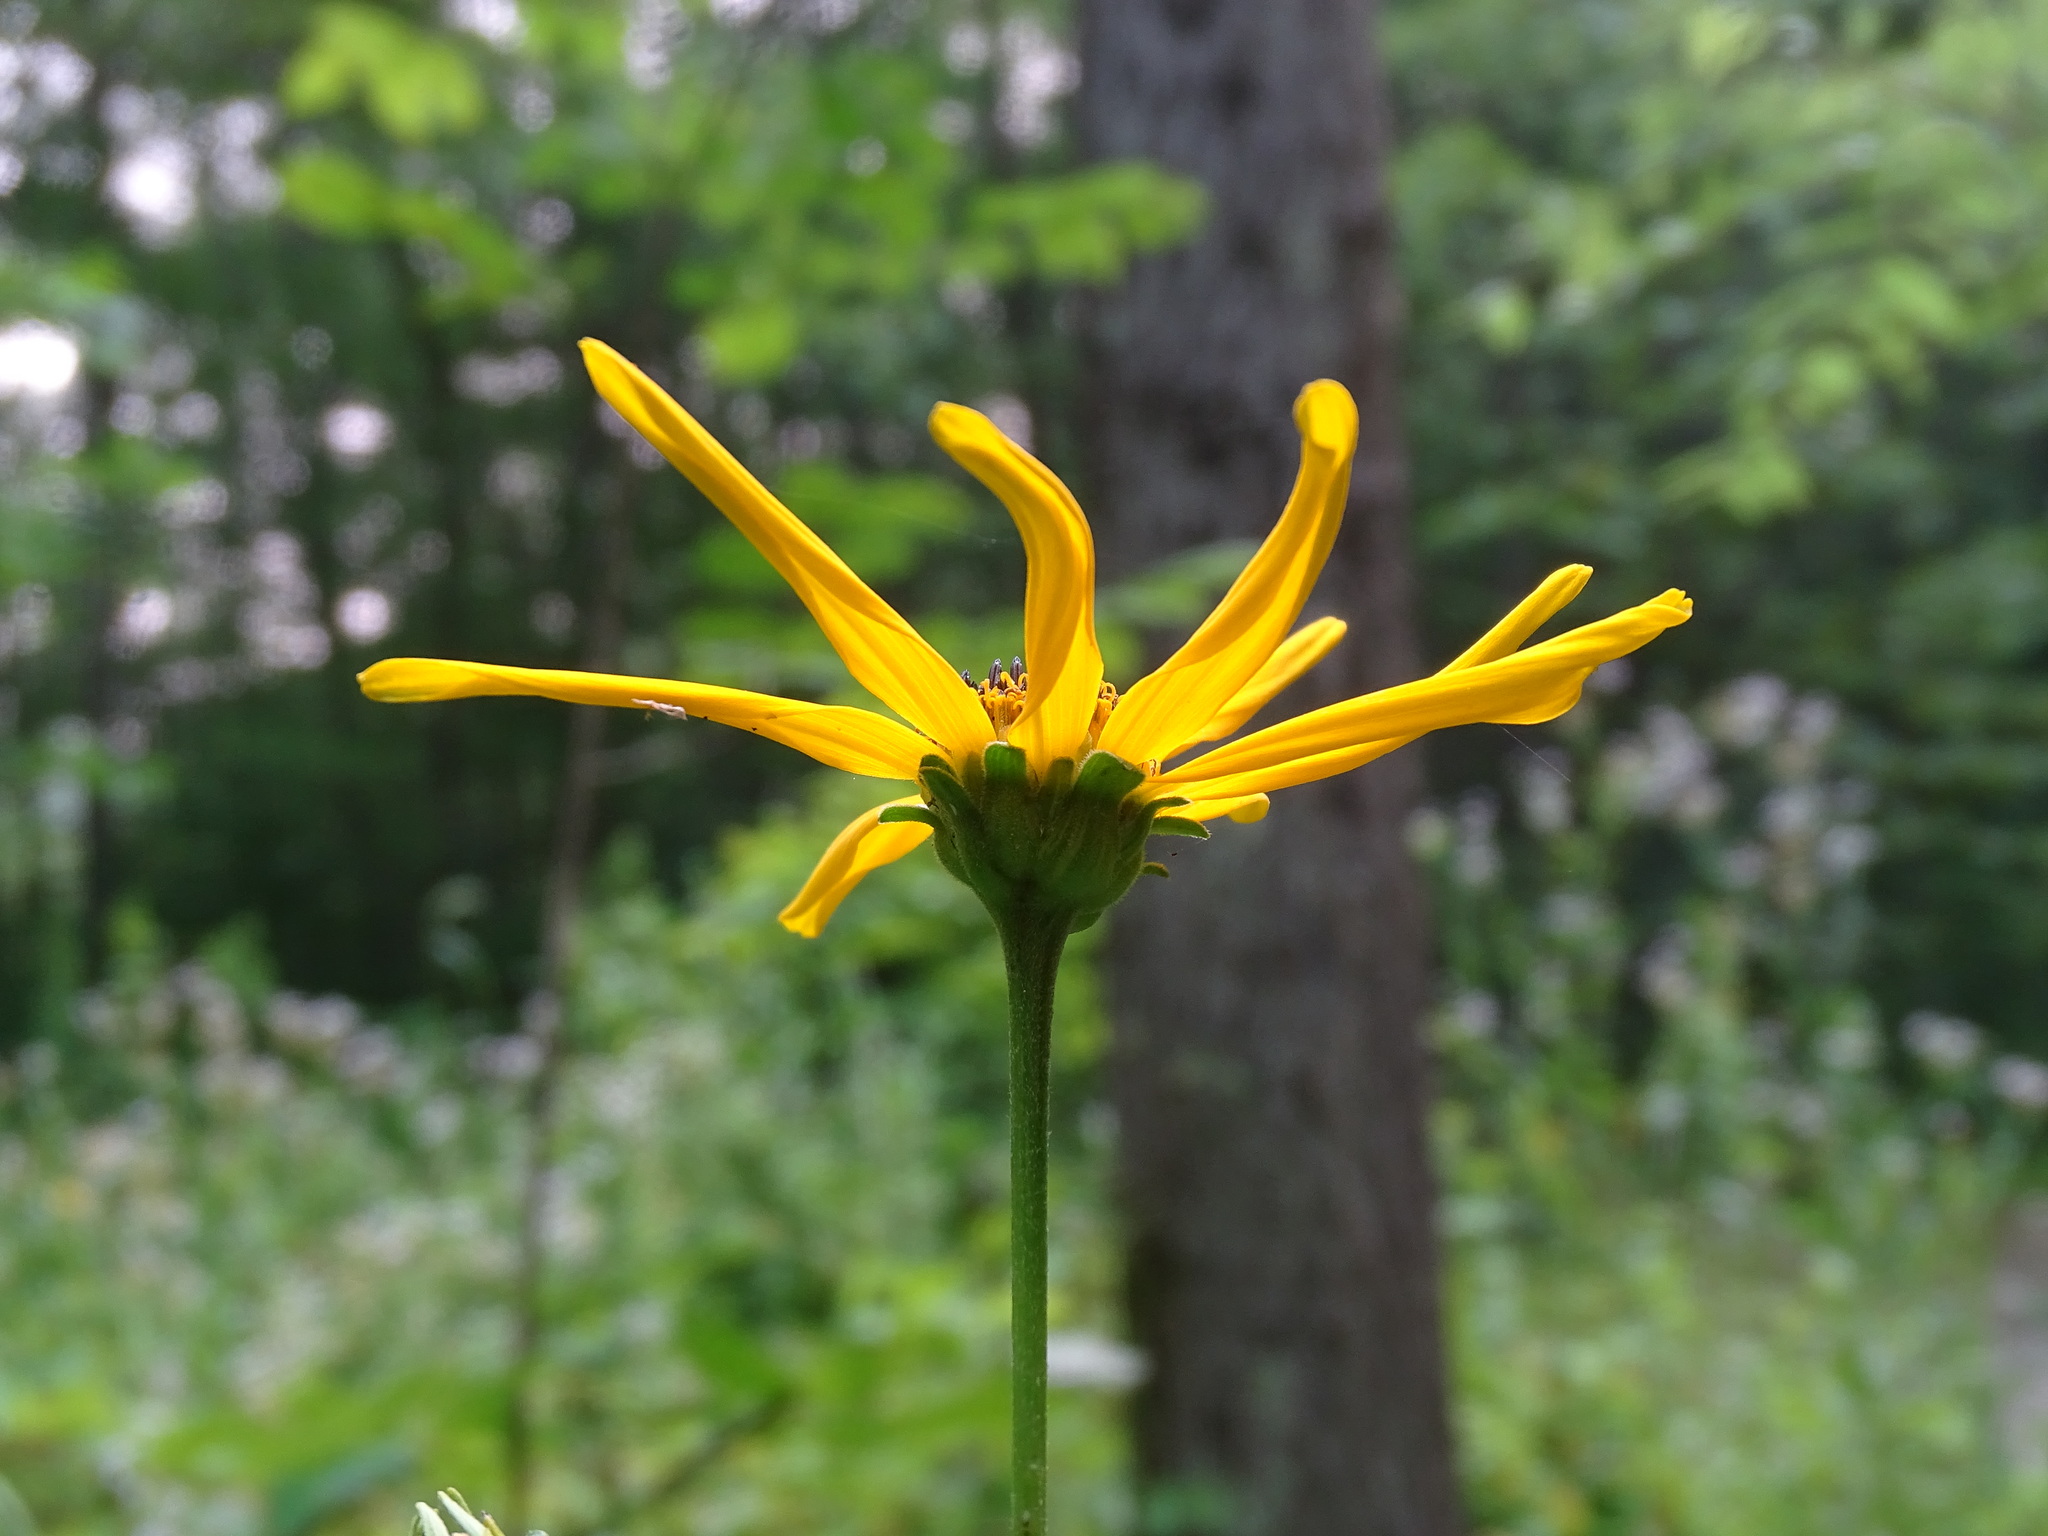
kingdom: Plantae
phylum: Tracheophyta
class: Magnoliopsida
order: Asterales
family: Asteraceae
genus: Heliopsis
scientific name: Heliopsis helianthoides
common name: False sunflower
